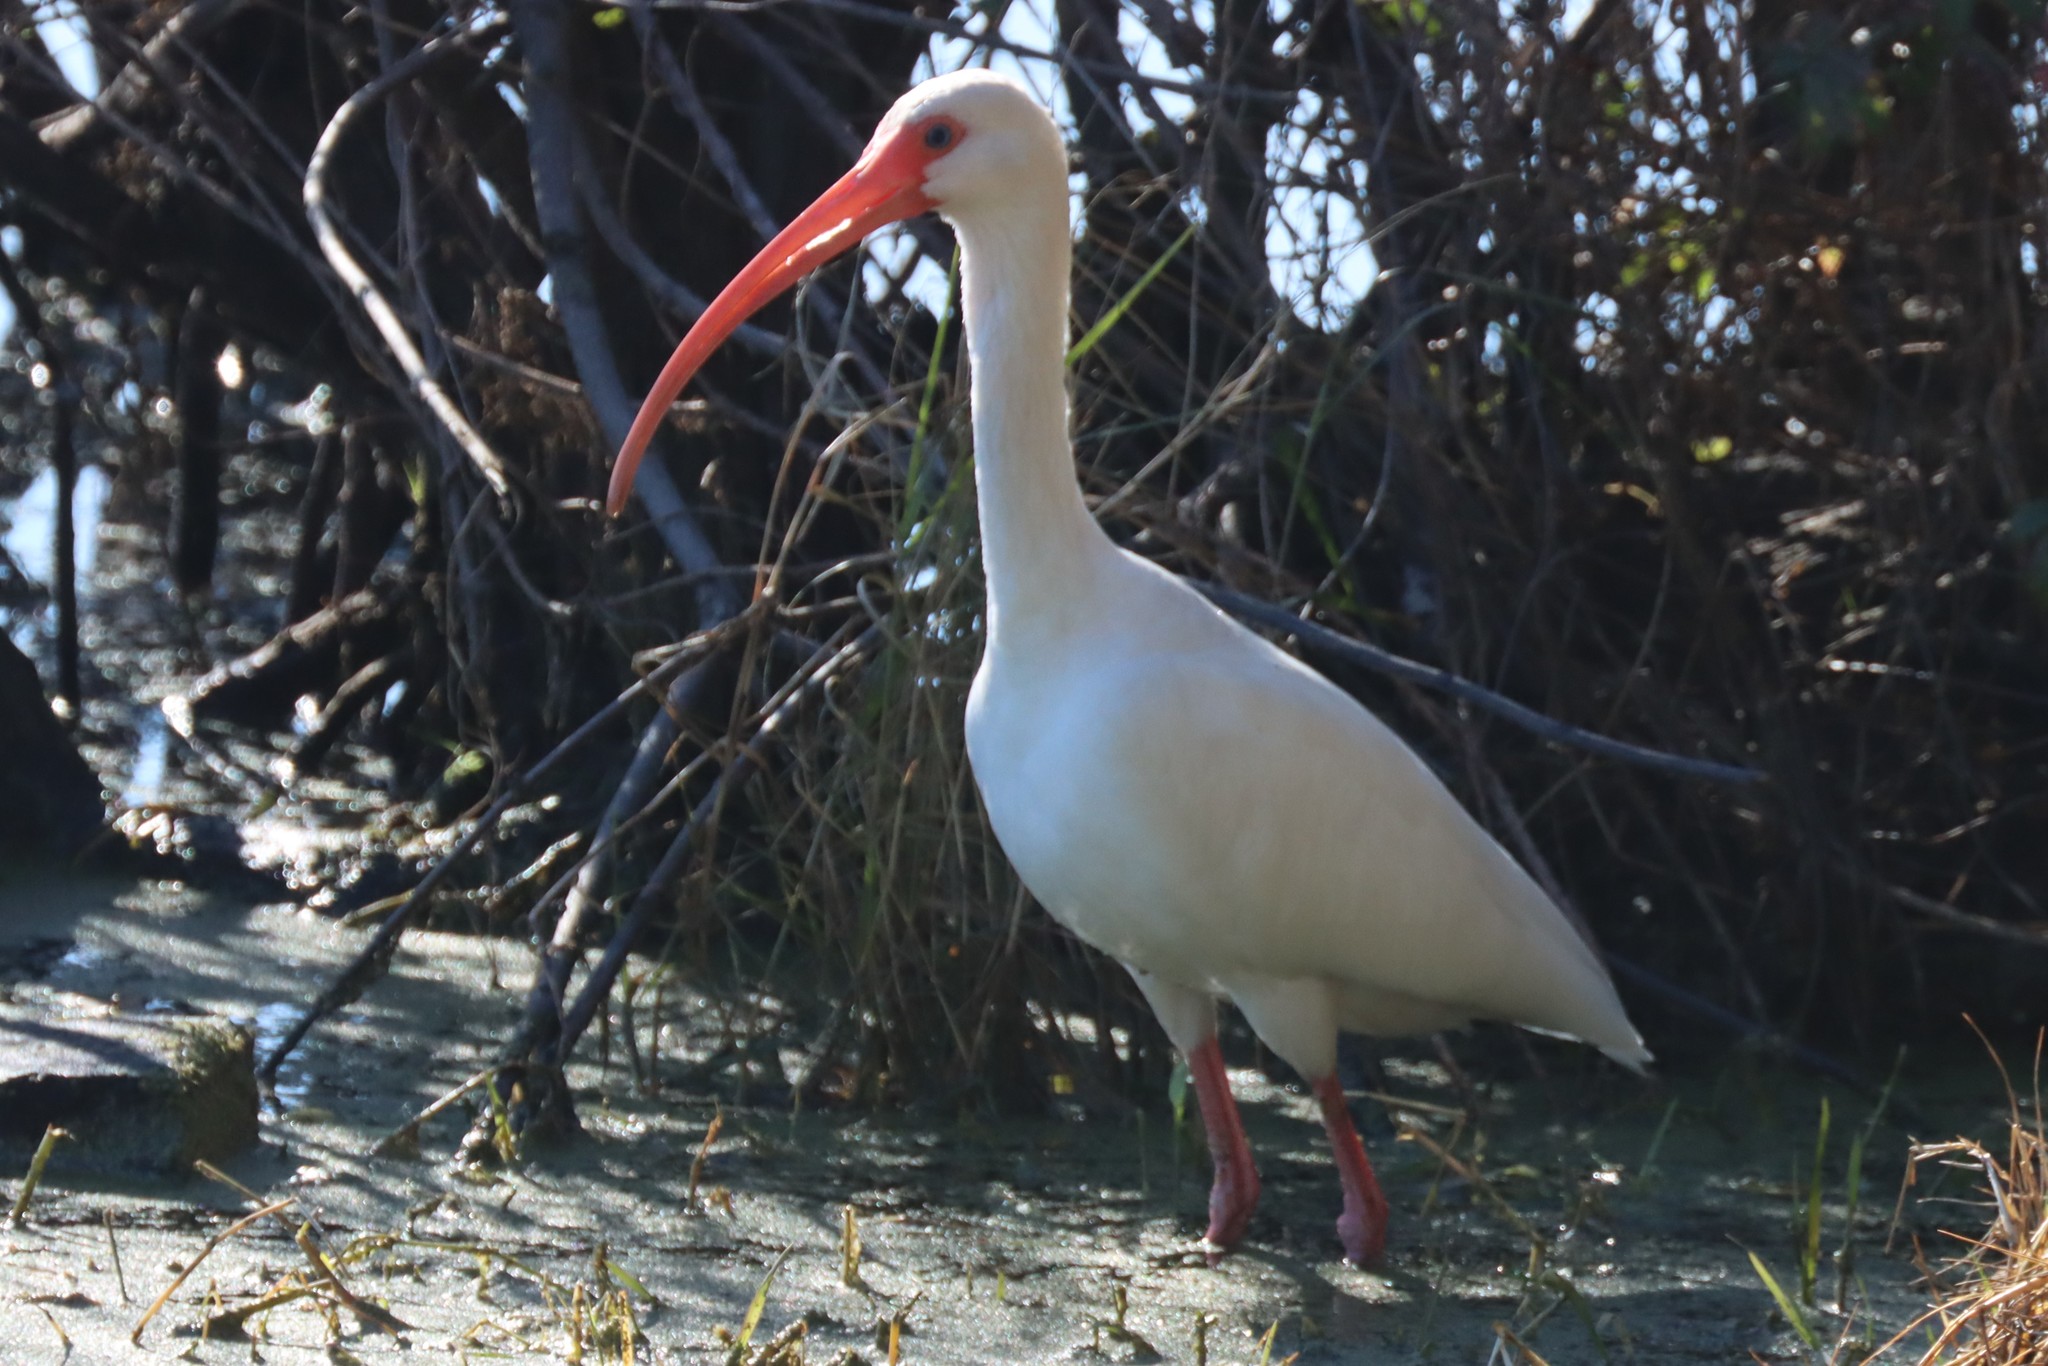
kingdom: Animalia
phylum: Chordata
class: Aves
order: Pelecaniformes
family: Threskiornithidae
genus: Eudocimus
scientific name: Eudocimus albus
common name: White ibis
